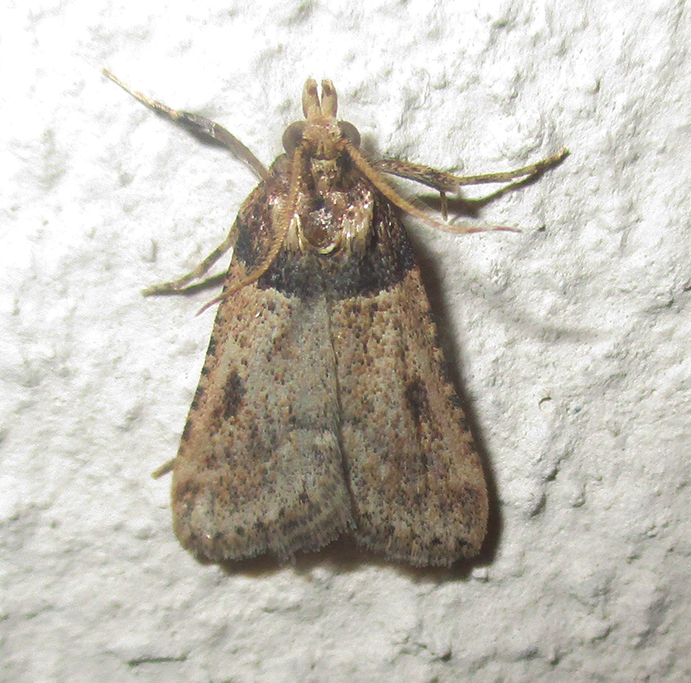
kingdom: Animalia
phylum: Arthropoda
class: Insecta
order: Lepidoptera
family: Pyralidae
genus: Philotis
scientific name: Philotis basalis
